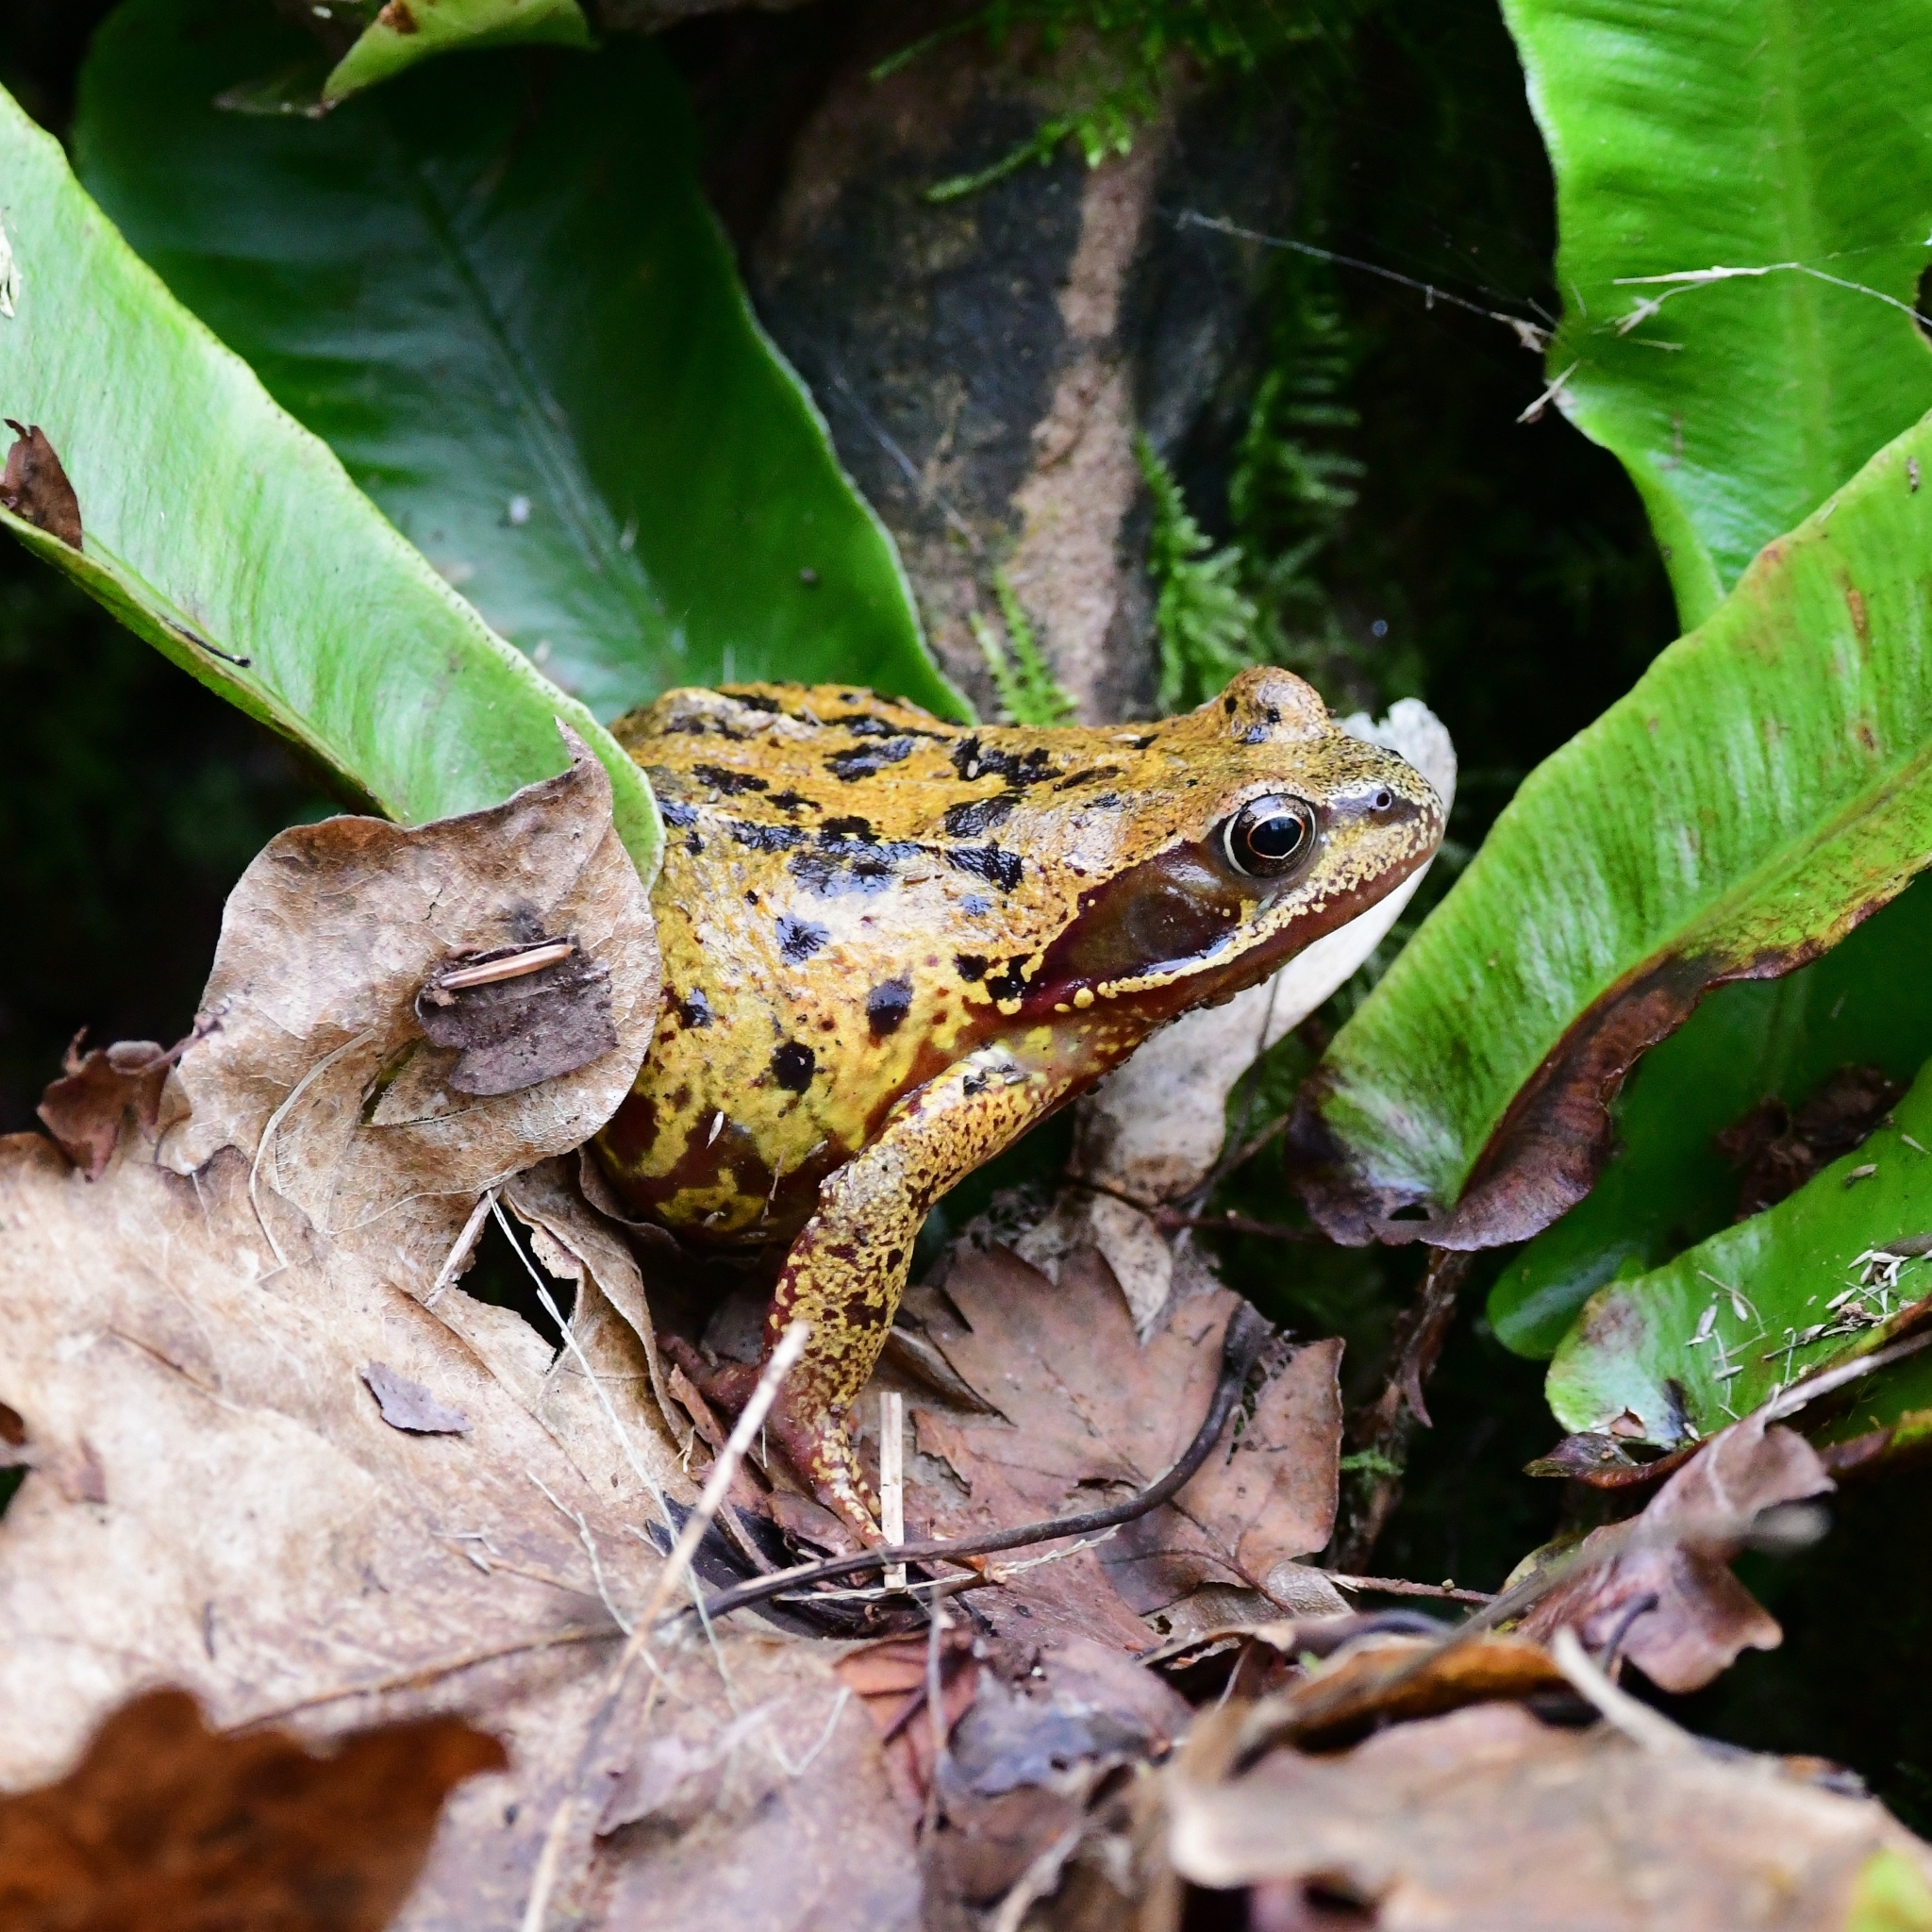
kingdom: Animalia
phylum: Chordata
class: Amphibia
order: Anura
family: Ranidae
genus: Rana
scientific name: Rana temporaria
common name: Common frog
